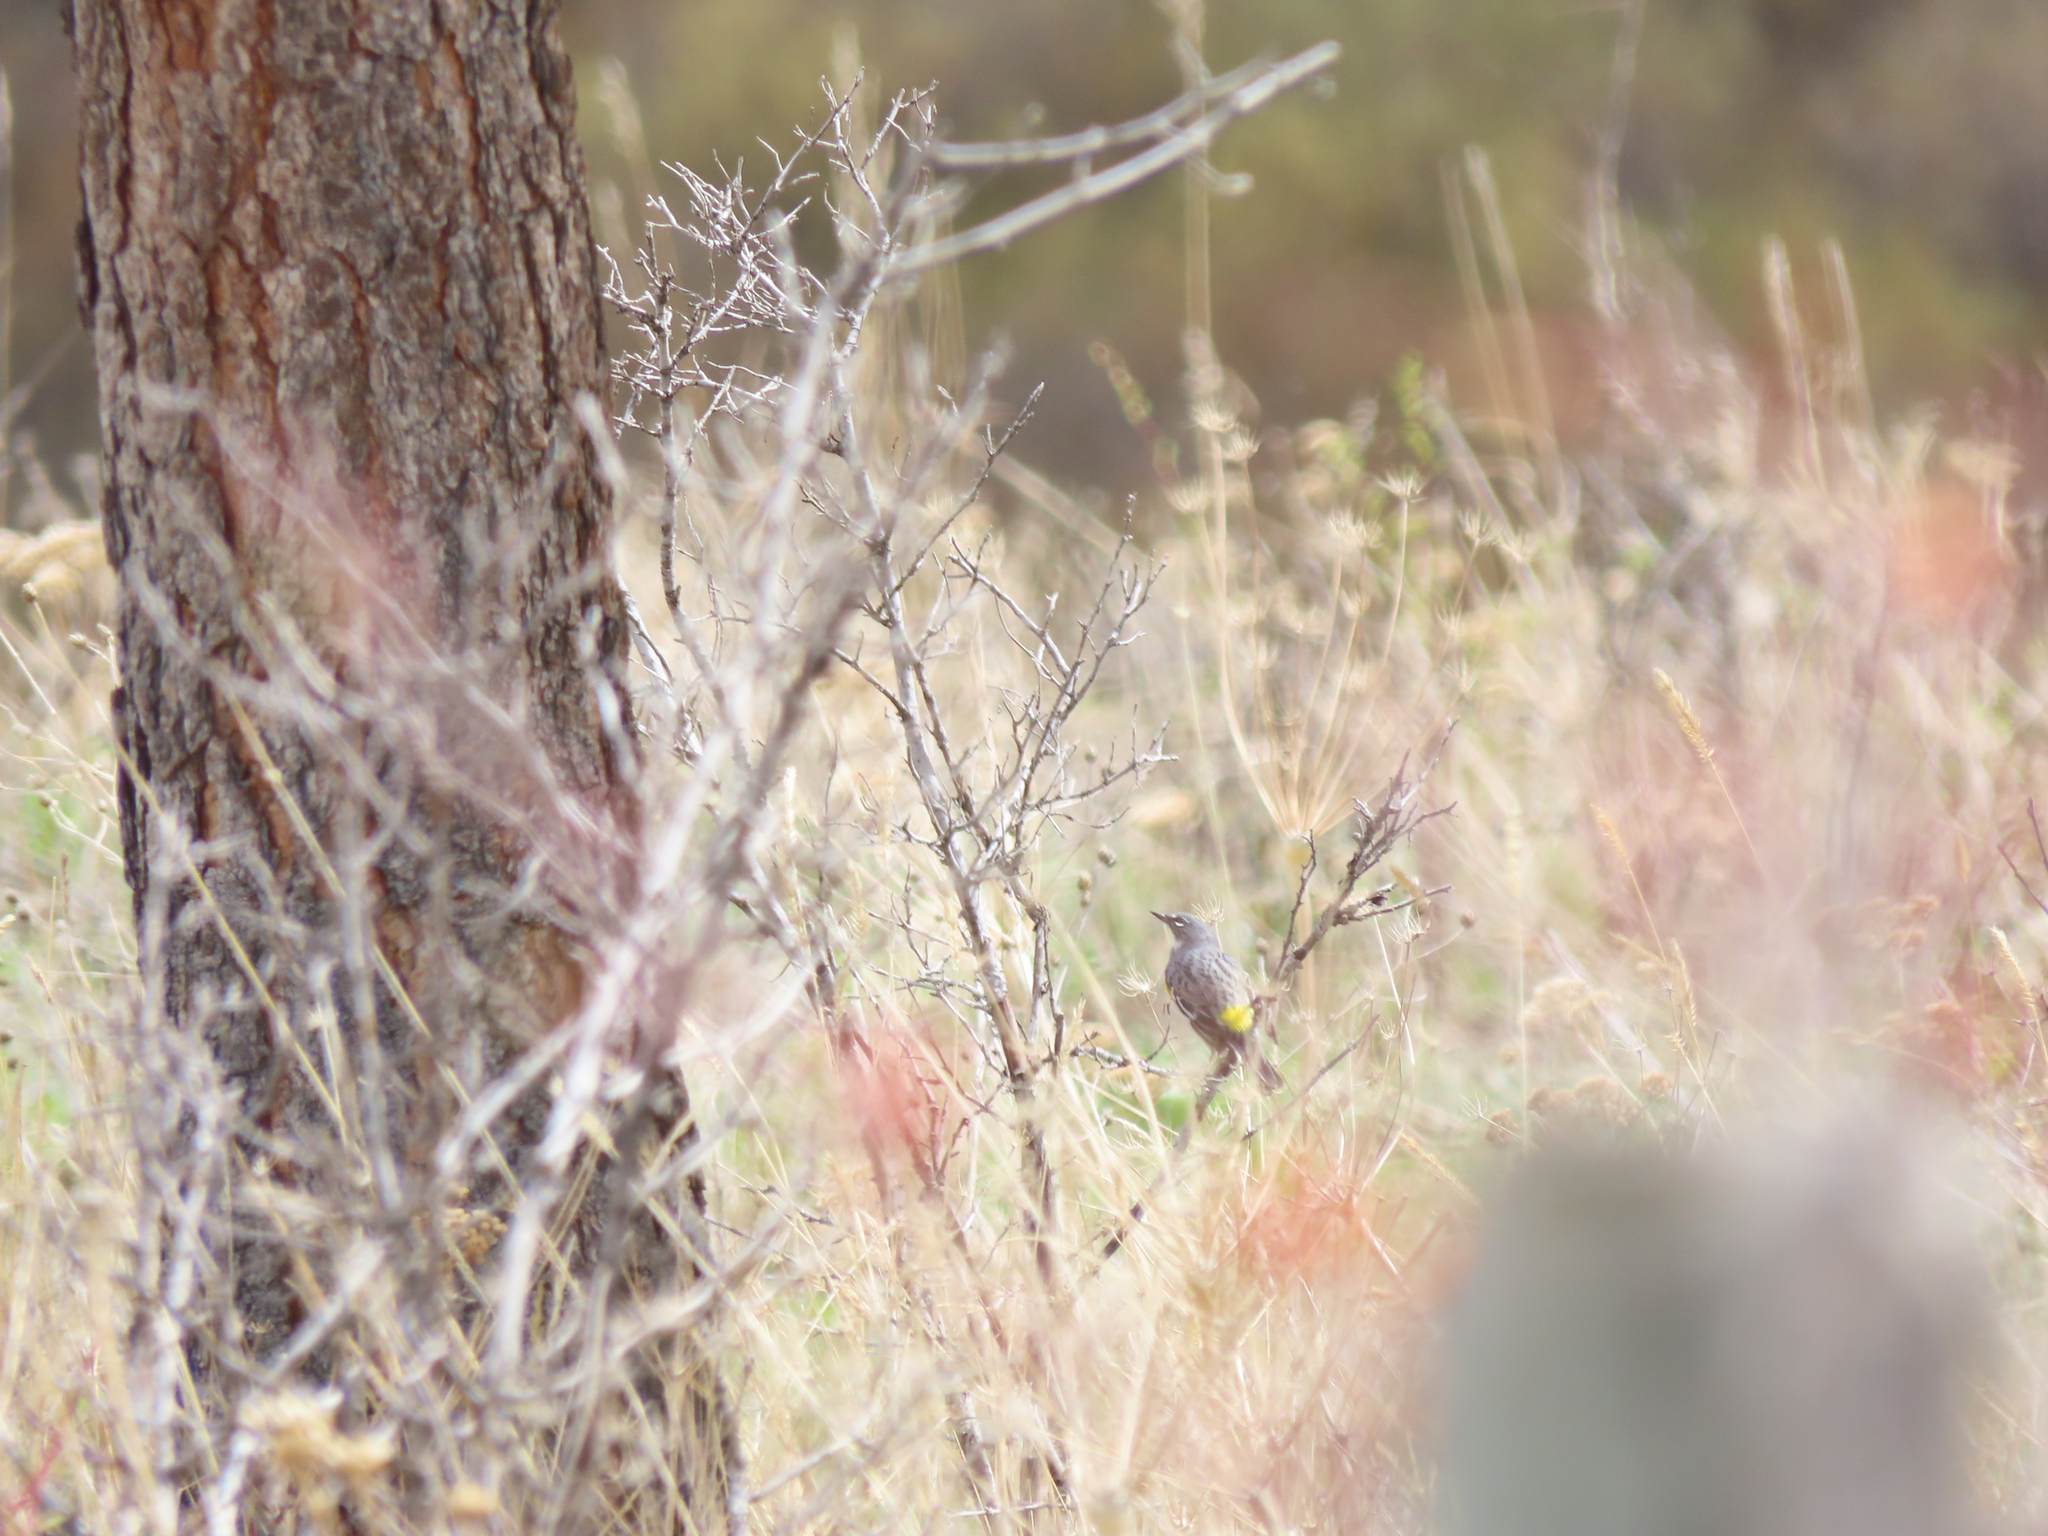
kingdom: Animalia
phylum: Chordata
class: Aves
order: Passeriformes
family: Parulidae
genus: Setophaga
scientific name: Setophaga coronata
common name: Myrtle warbler
